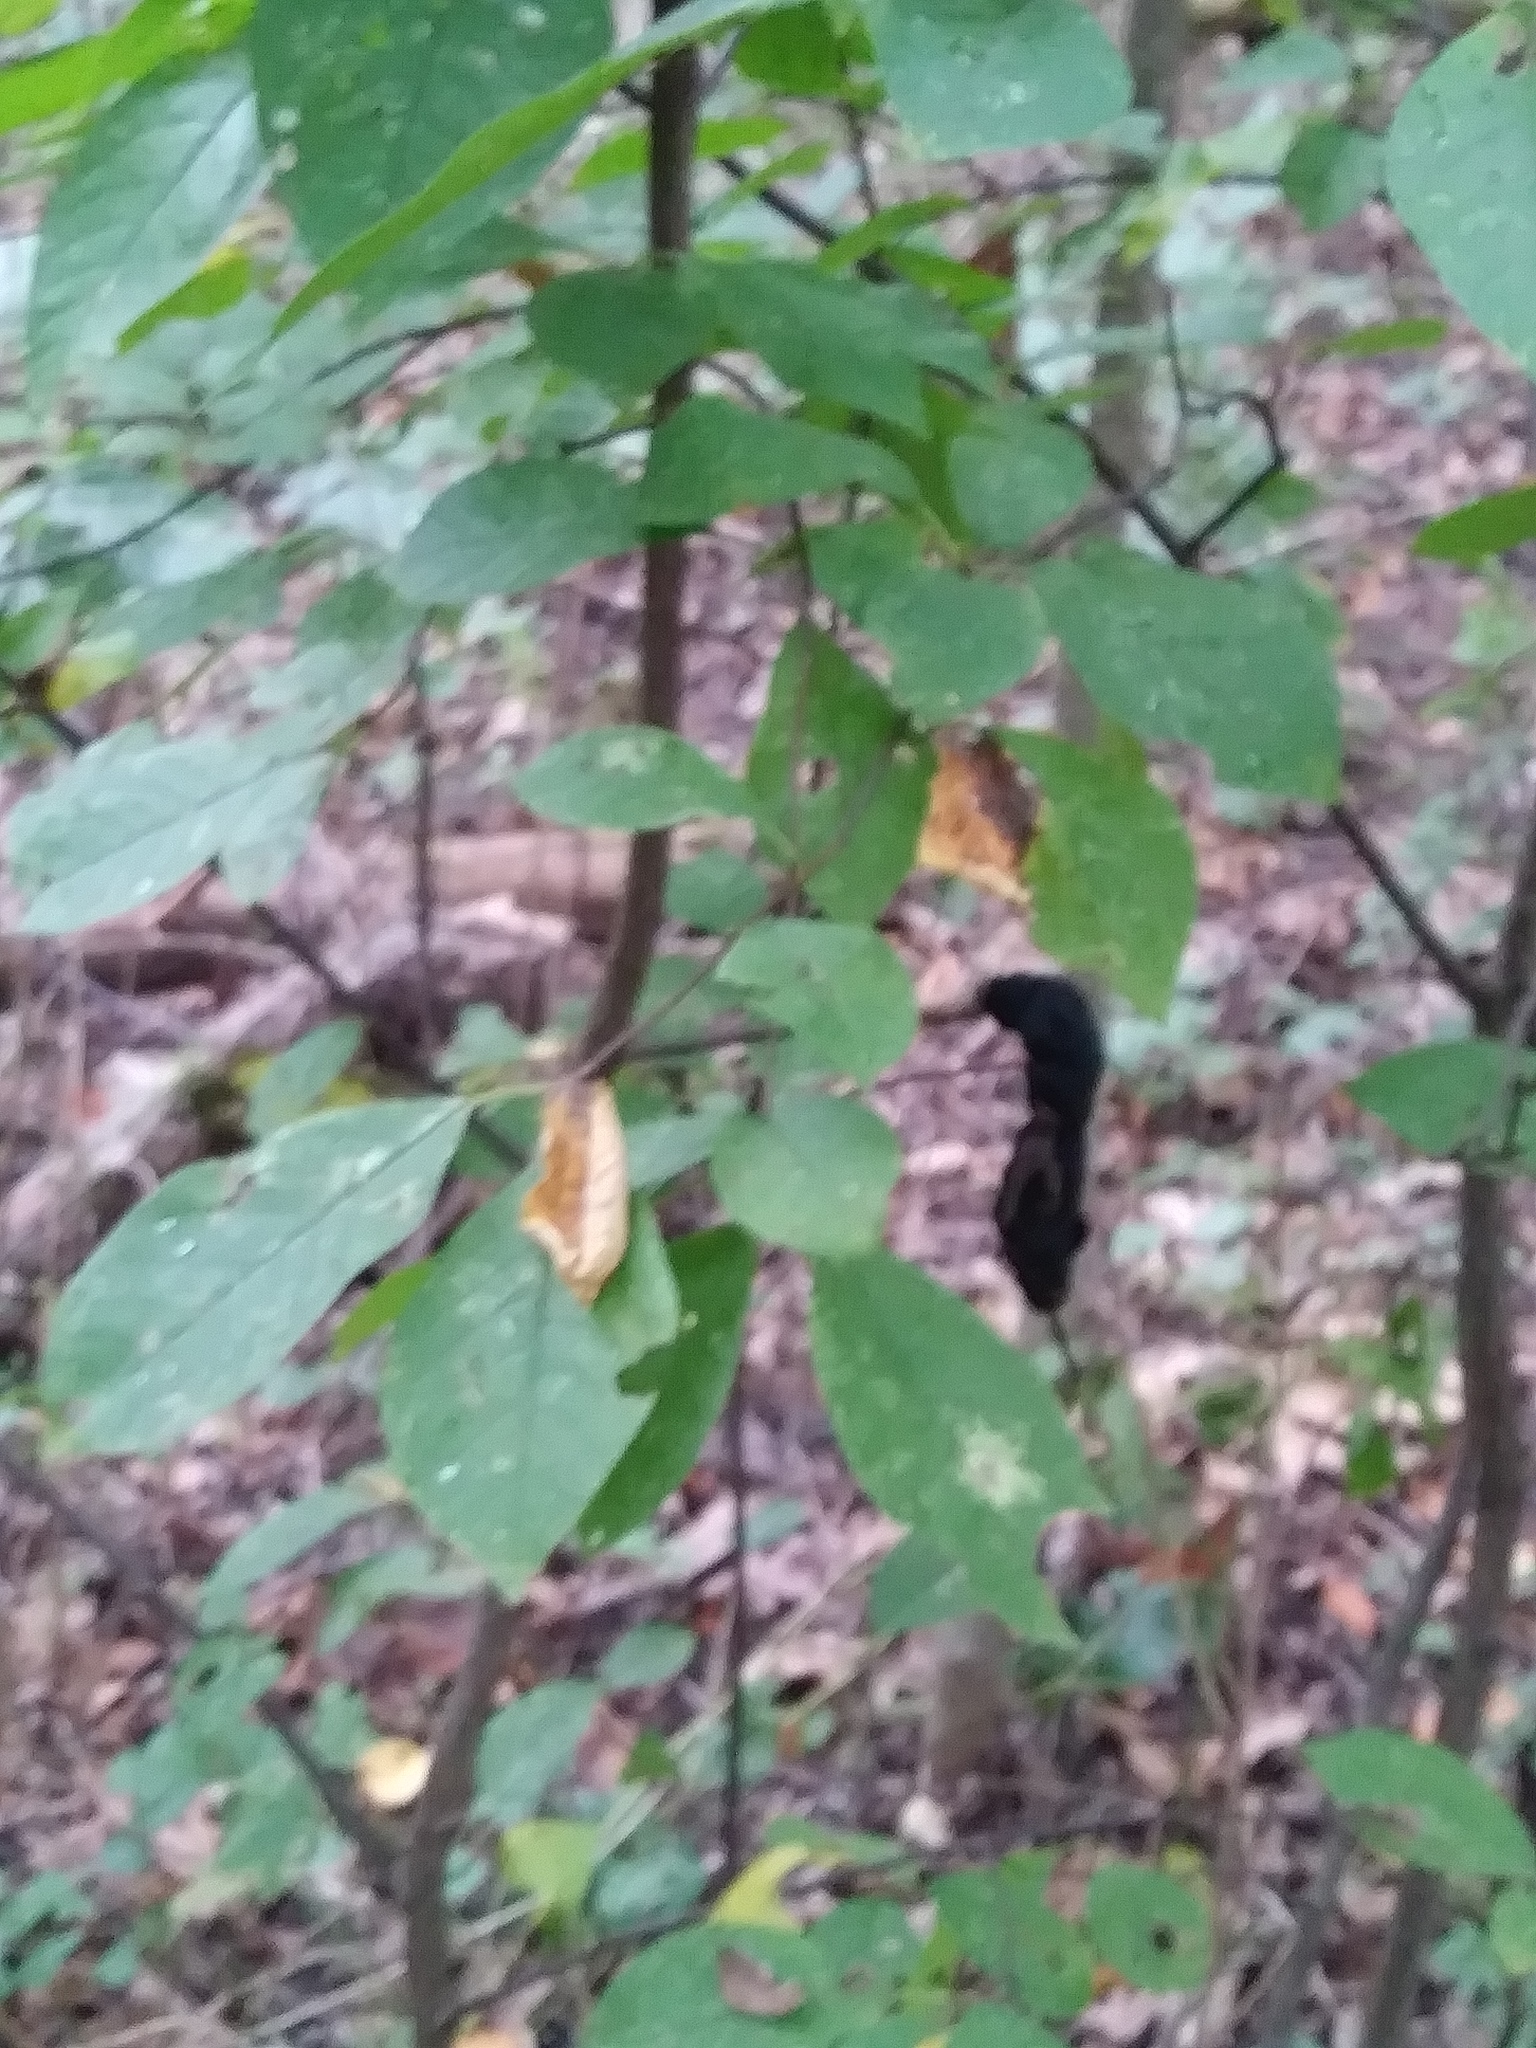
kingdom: Fungi
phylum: Ascomycota
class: Dothideomycetes
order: Venturiales
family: Venturiaceae
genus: Apiosporina
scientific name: Apiosporina morbosa
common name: Black knot
